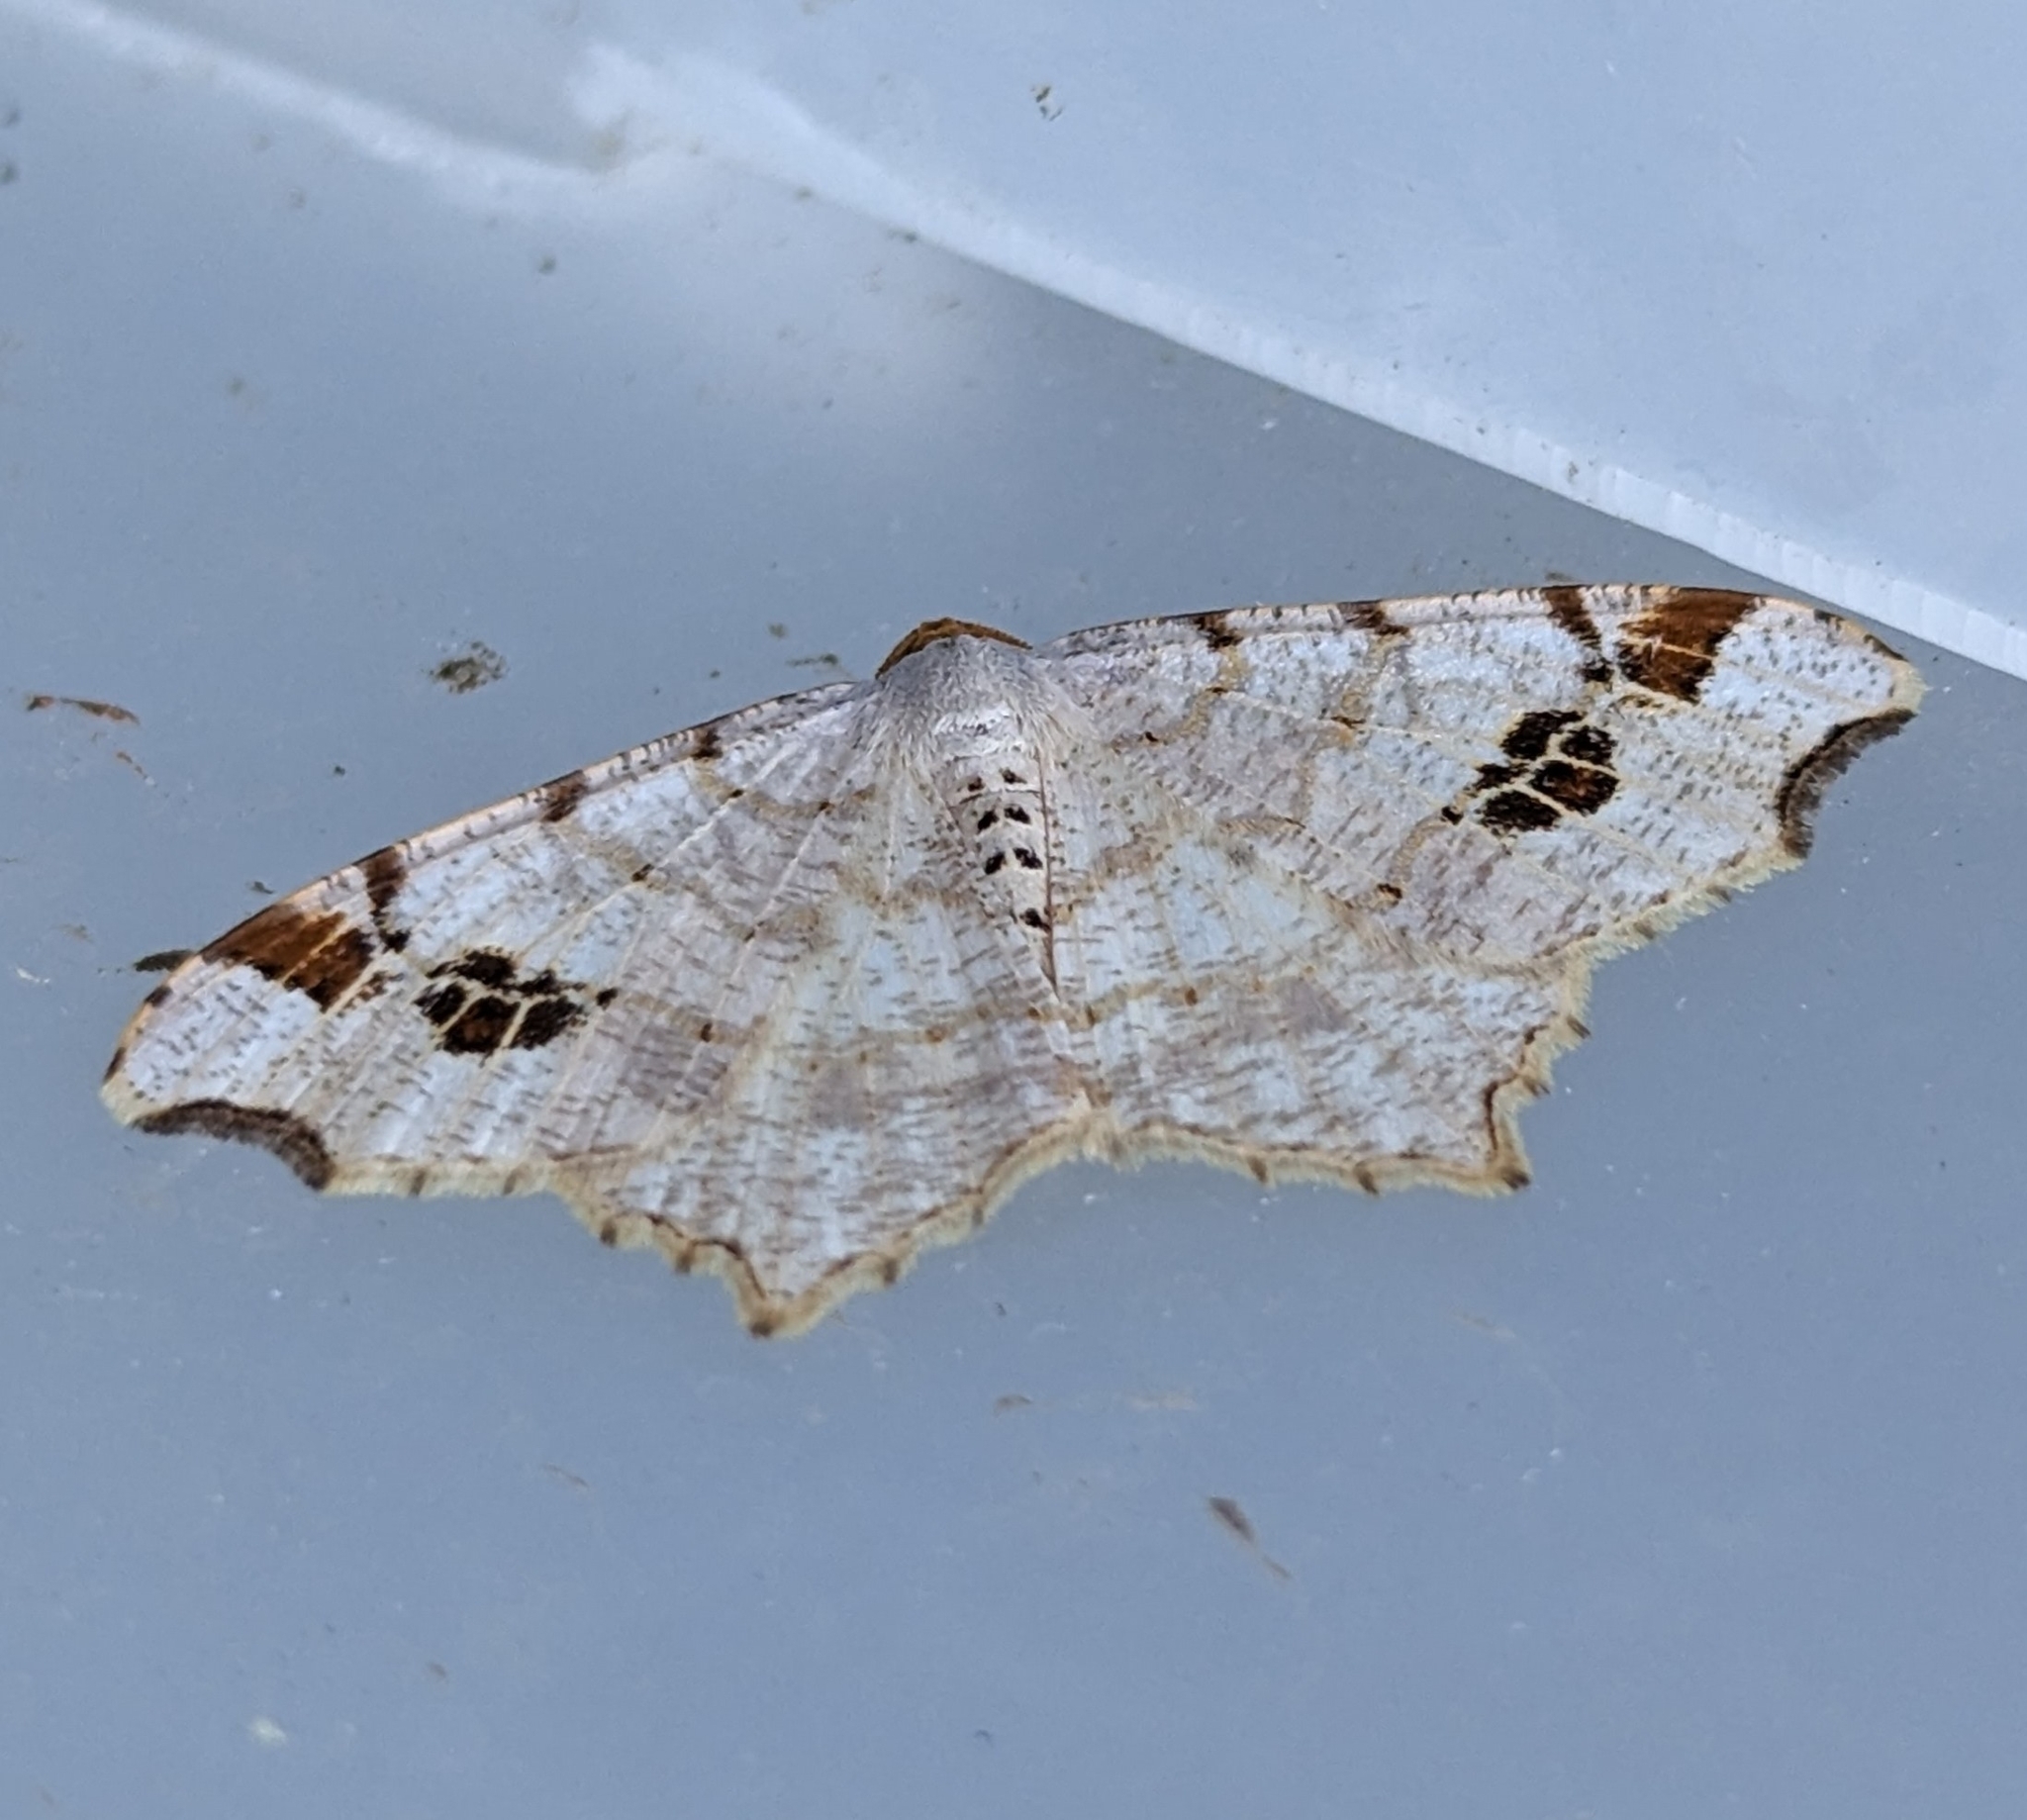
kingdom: Animalia
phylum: Arthropoda
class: Insecta
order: Lepidoptera
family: Geometridae
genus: Macaria
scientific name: Macaria ulsterata
